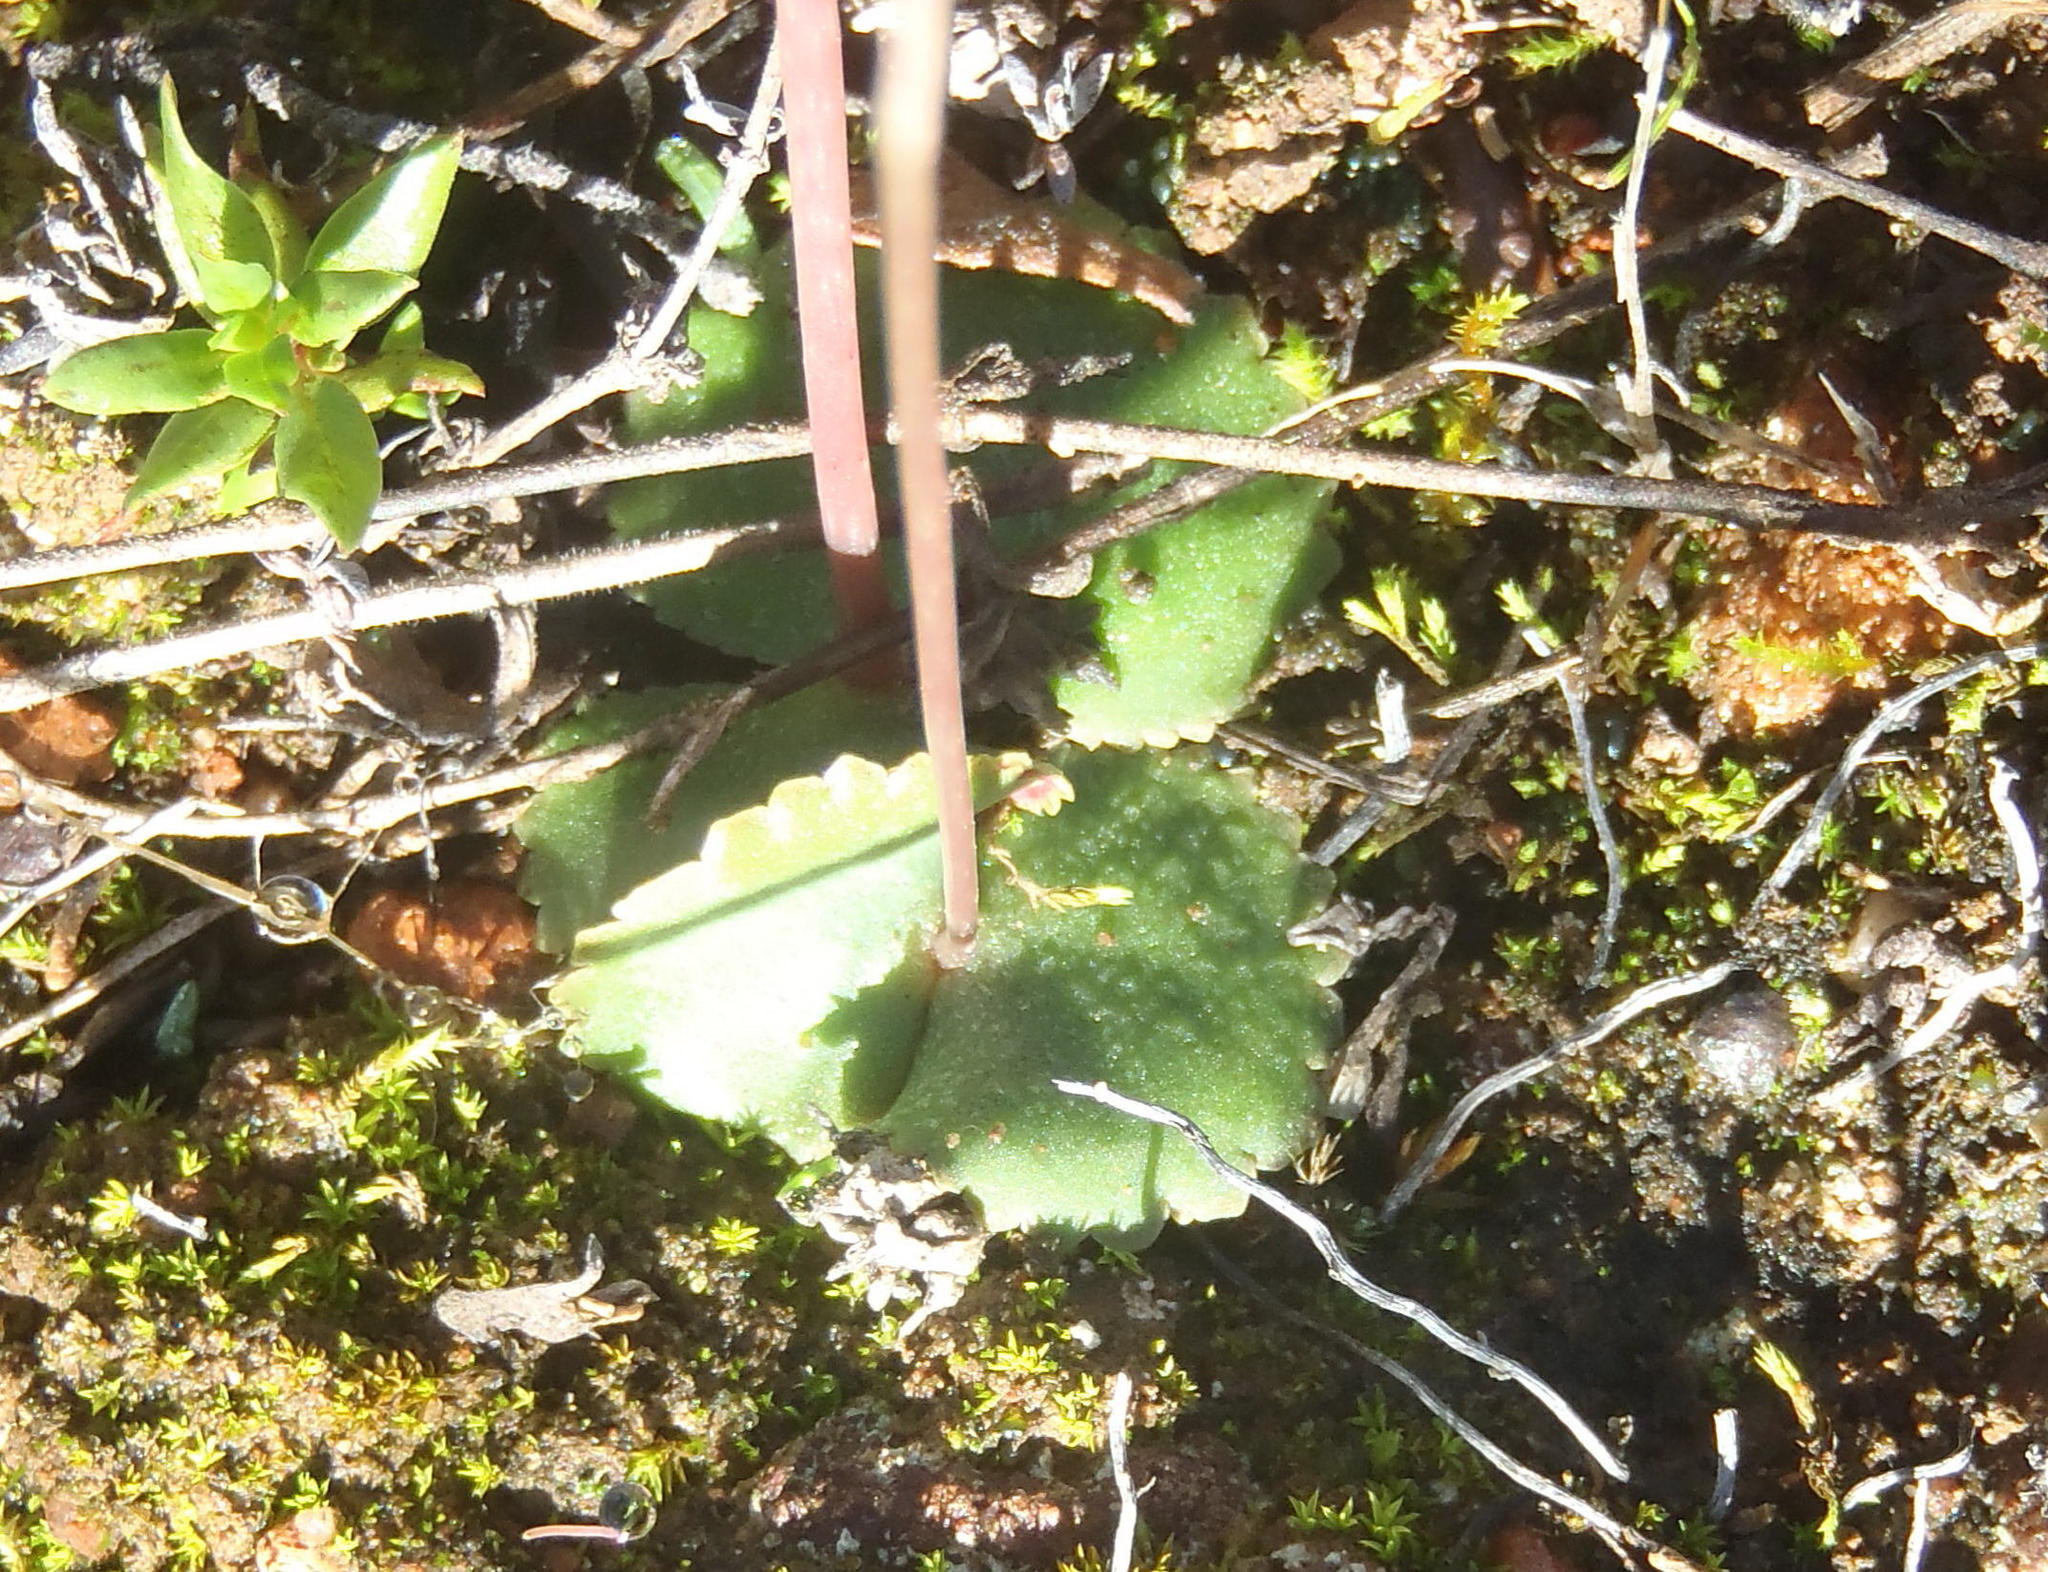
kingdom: Plantae
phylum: Tracheophyta
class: Magnoliopsida
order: Saxifragales
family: Crassulaceae
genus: Crassula
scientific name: Crassula saxifraga
